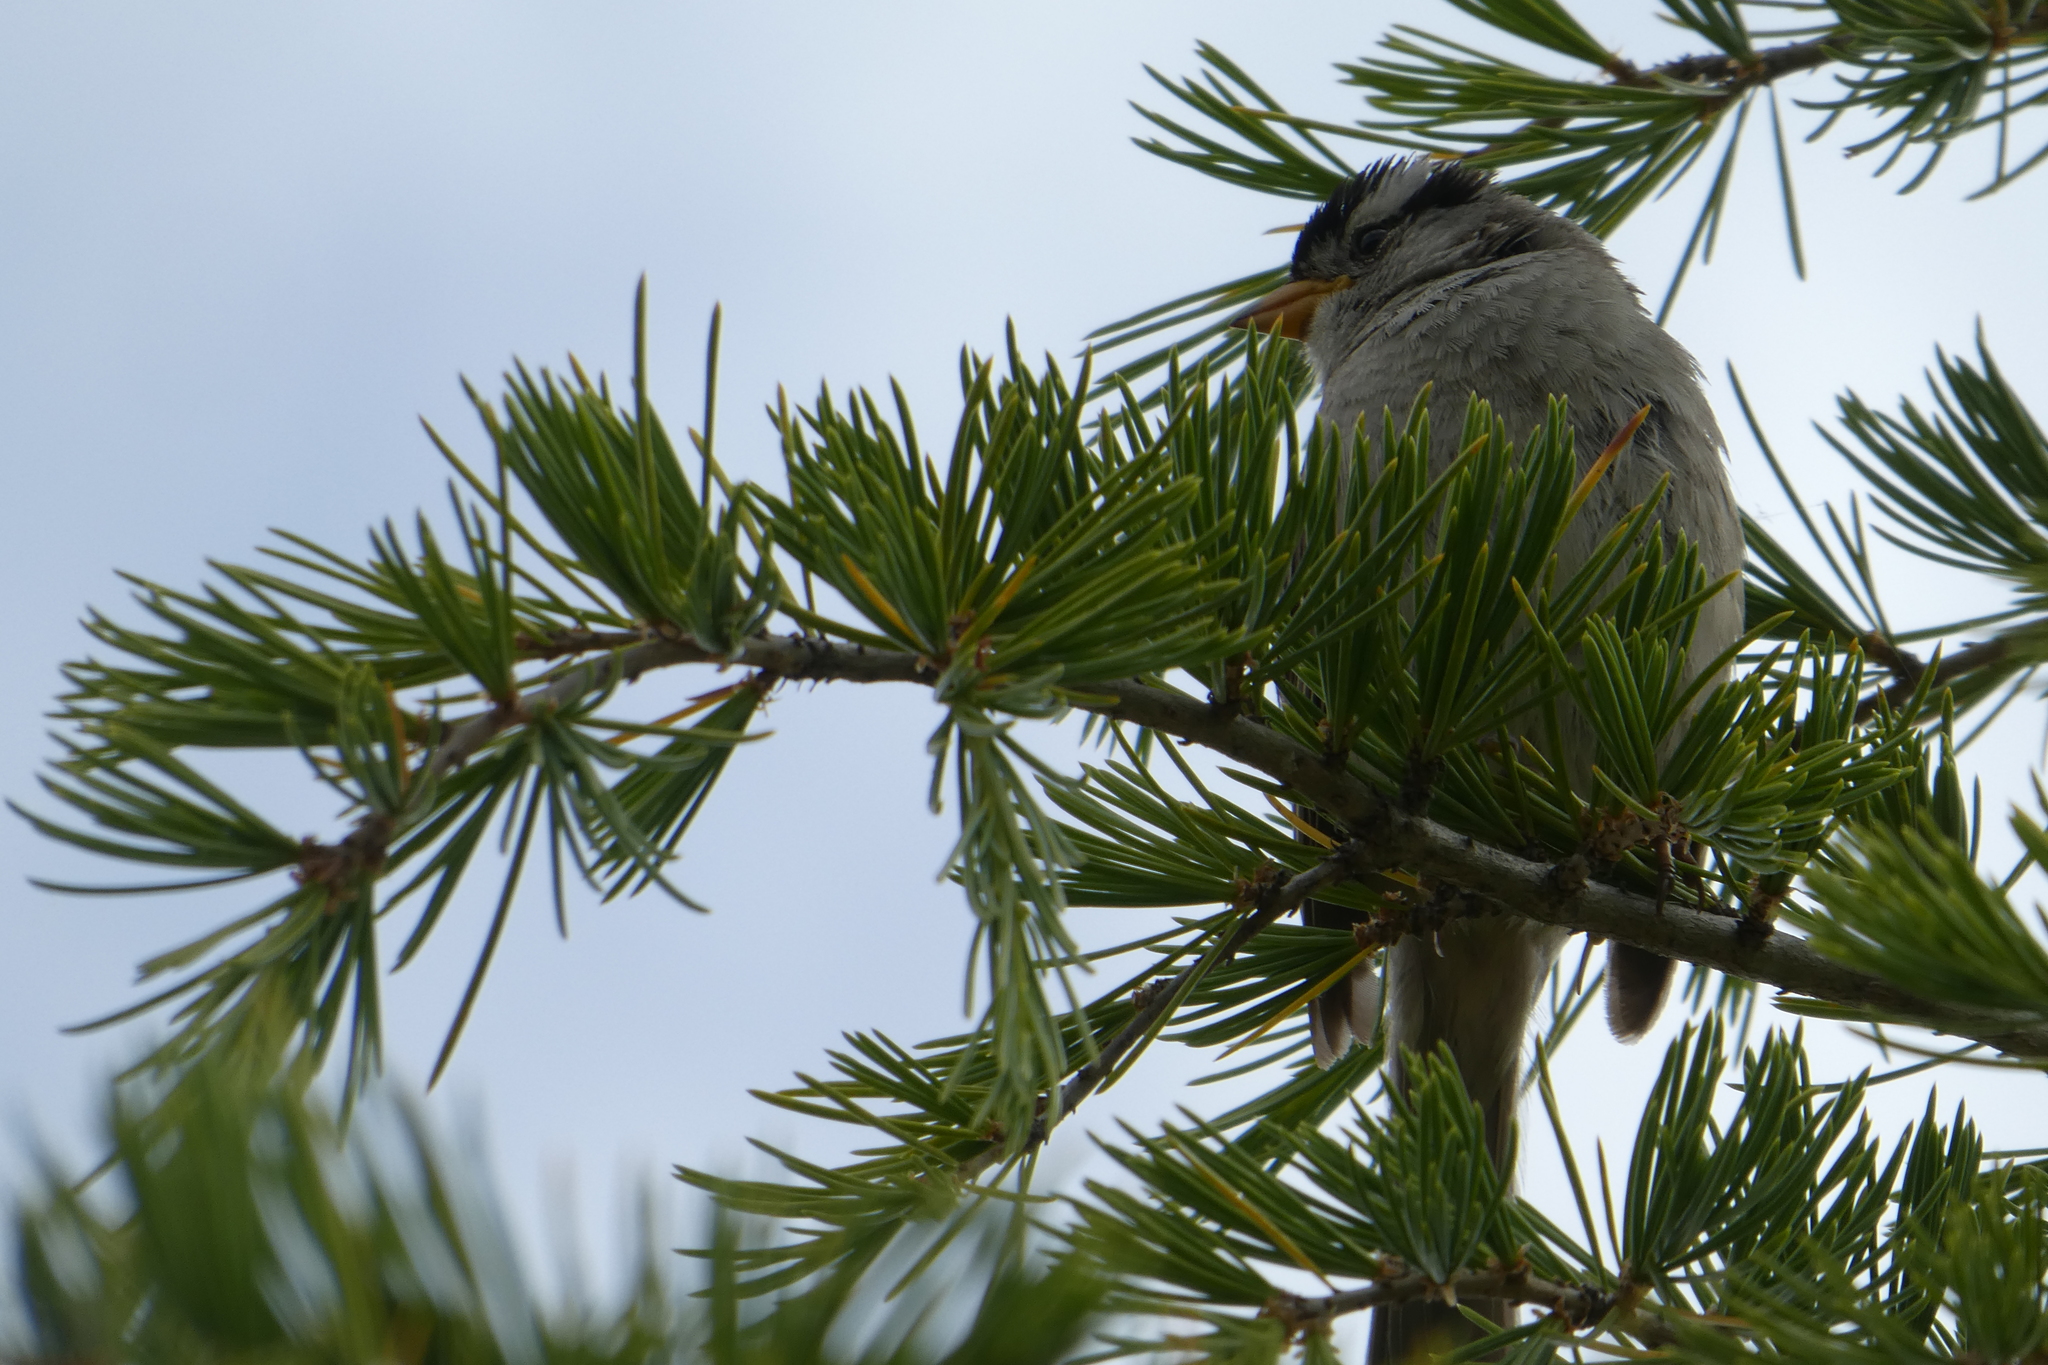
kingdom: Animalia
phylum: Chordata
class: Aves
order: Passeriformes
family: Passerellidae
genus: Zonotrichia
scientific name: Zonotrichia leucophrys
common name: White-crowned sparrow
